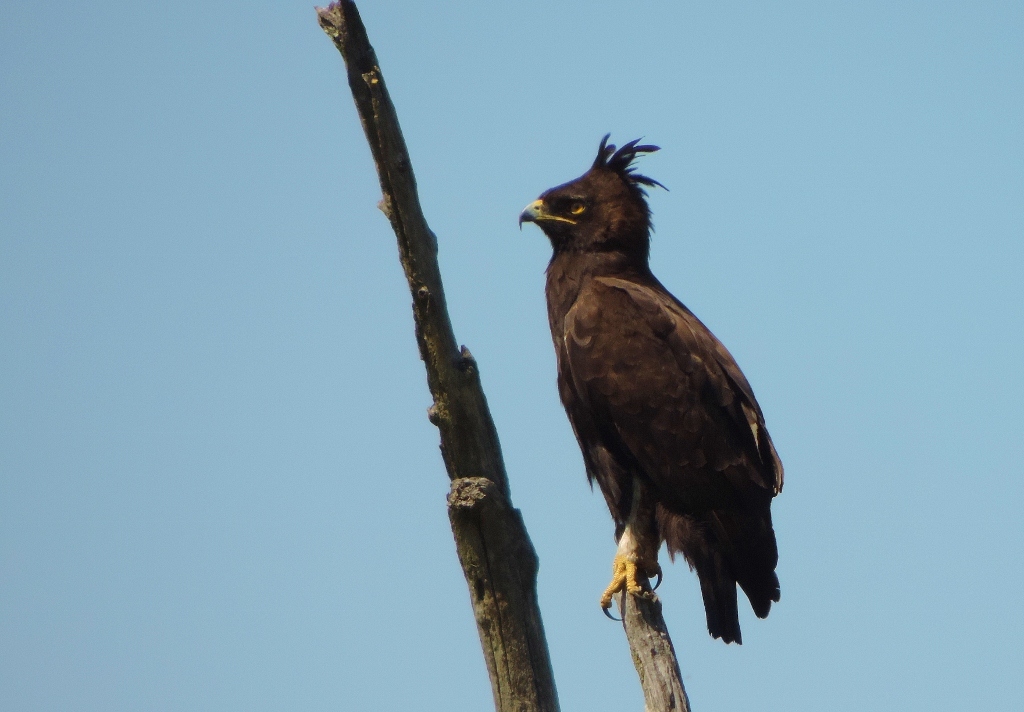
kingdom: Animalia
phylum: Chordata
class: Aves
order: Accipitriformes
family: Accipitridae
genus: Lophaetus
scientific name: Lophaetus occipitalis
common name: Long-crested eagle
